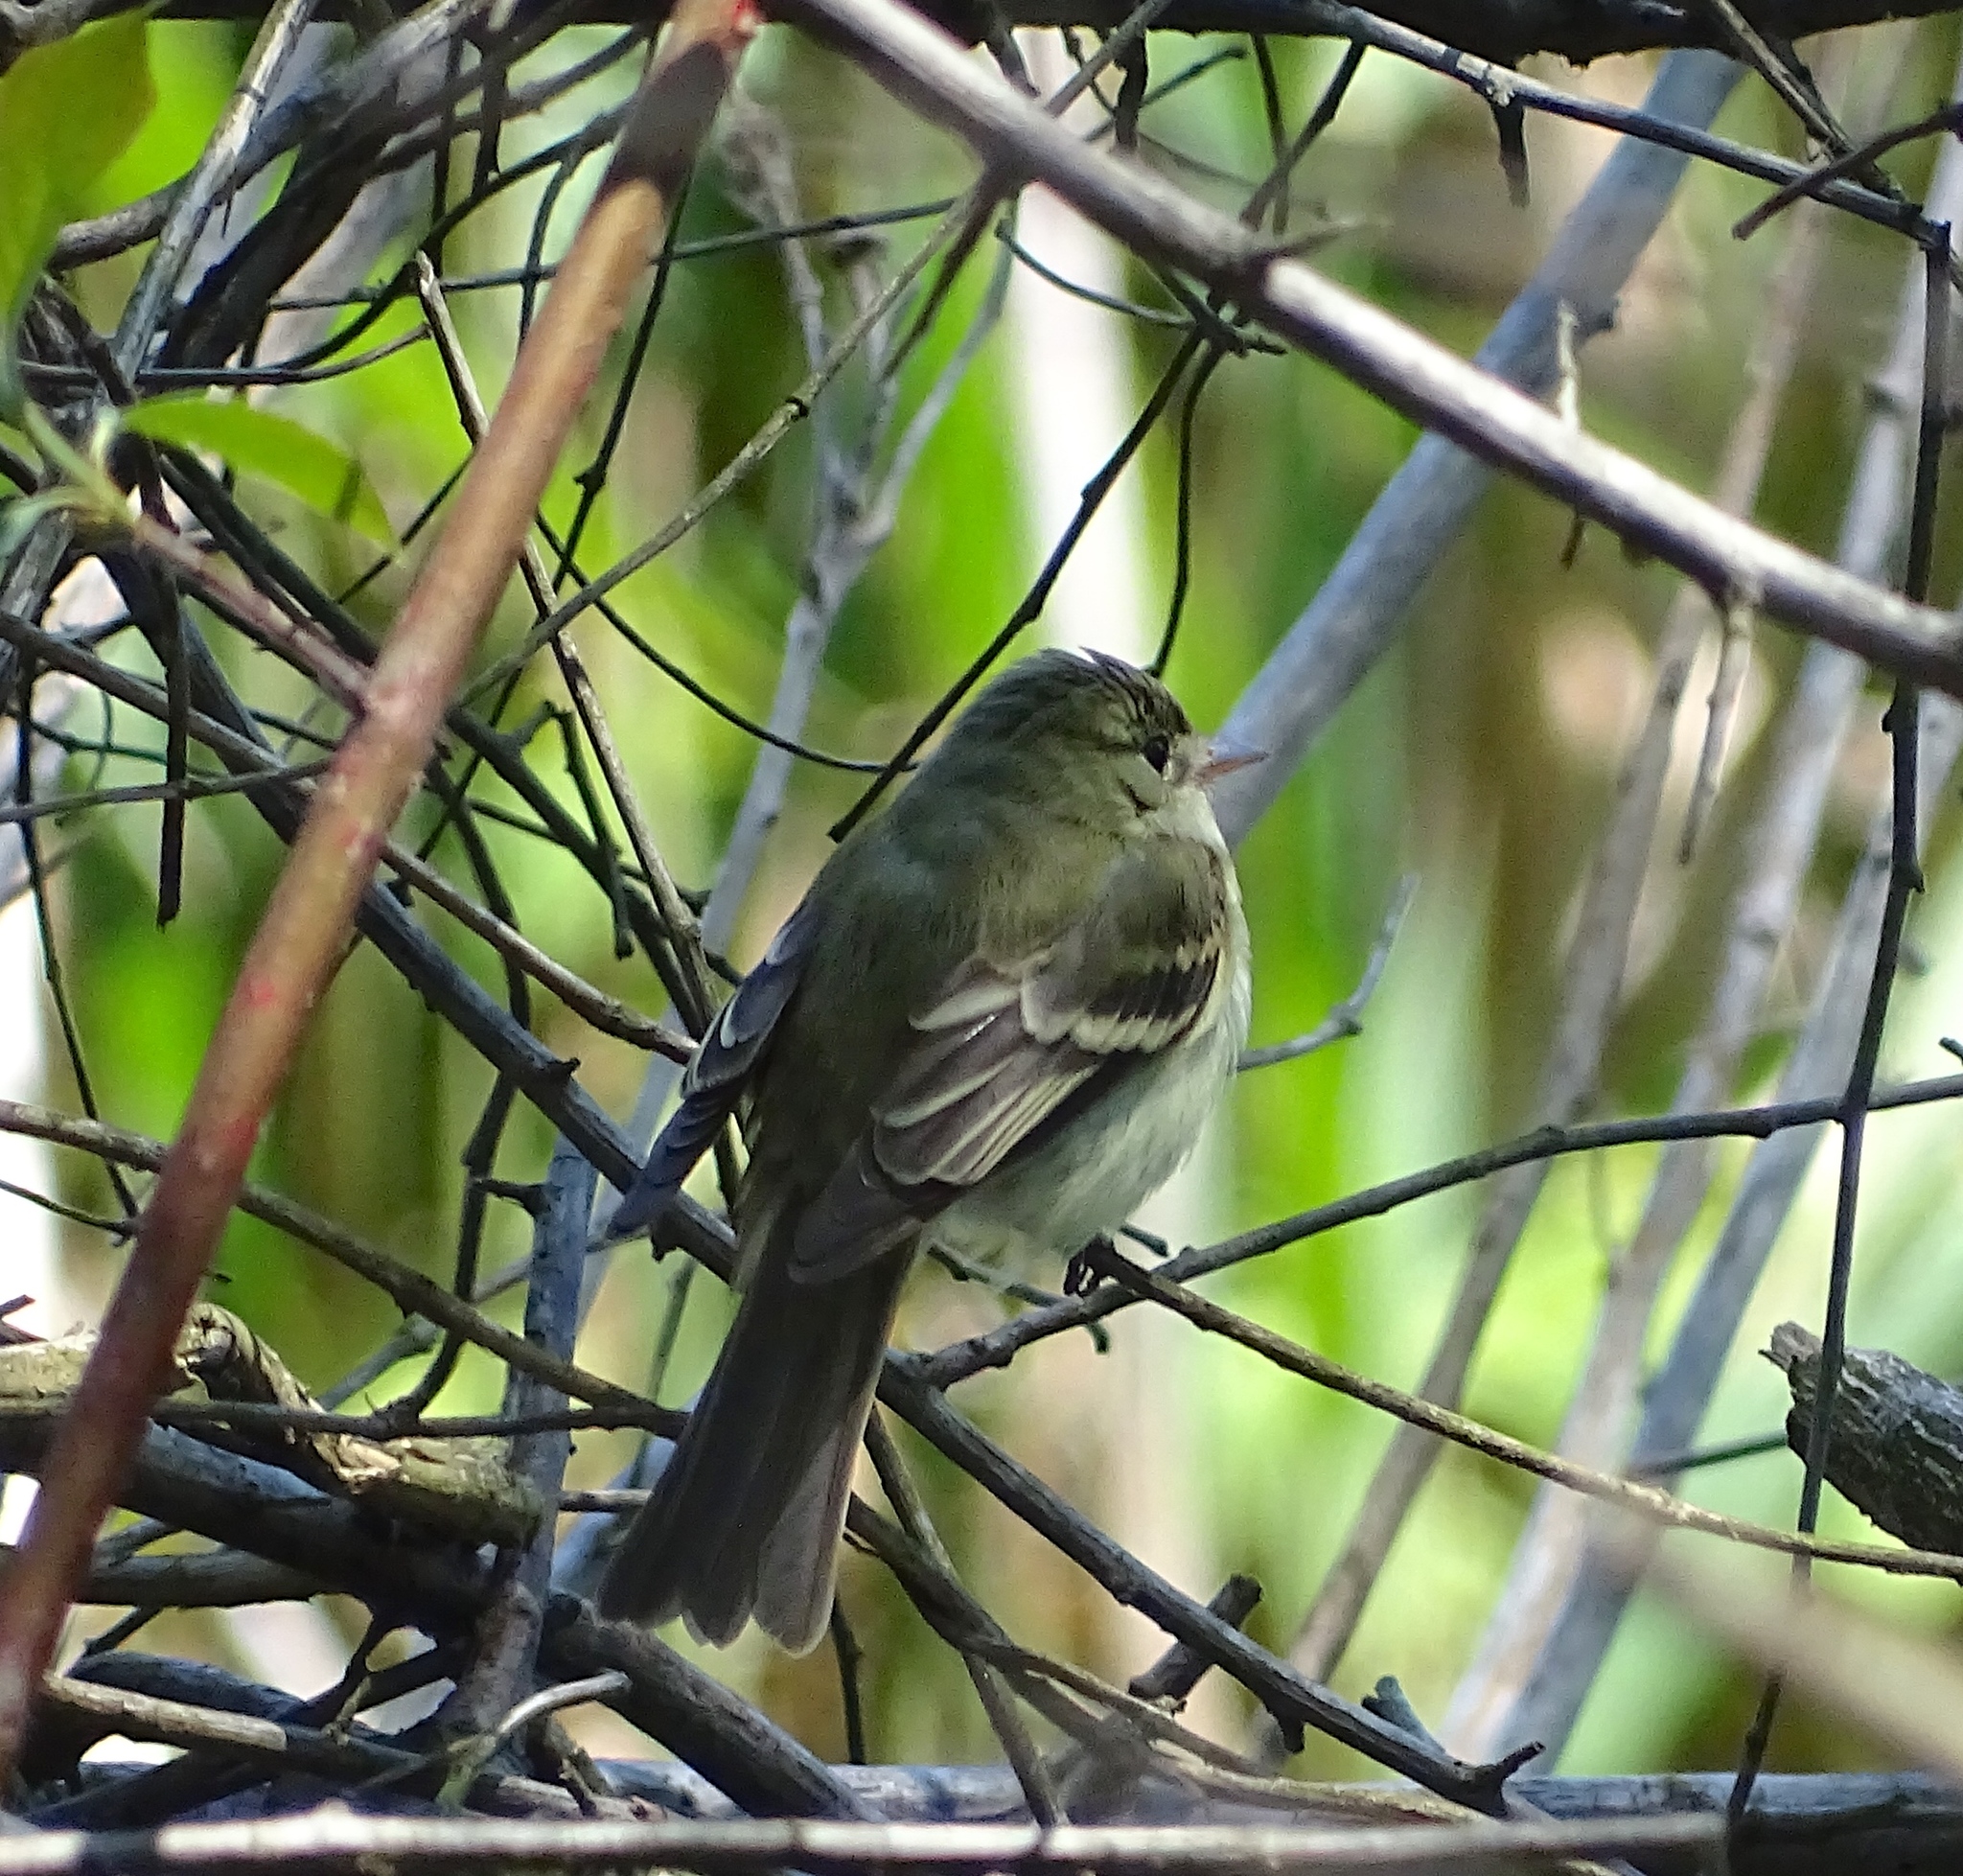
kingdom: Animalia
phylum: Chordata
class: Aves
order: Passeriformes
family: Tyrannidae
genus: Empidonax
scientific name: Empidonax virescens
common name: Acadian flycatcher
